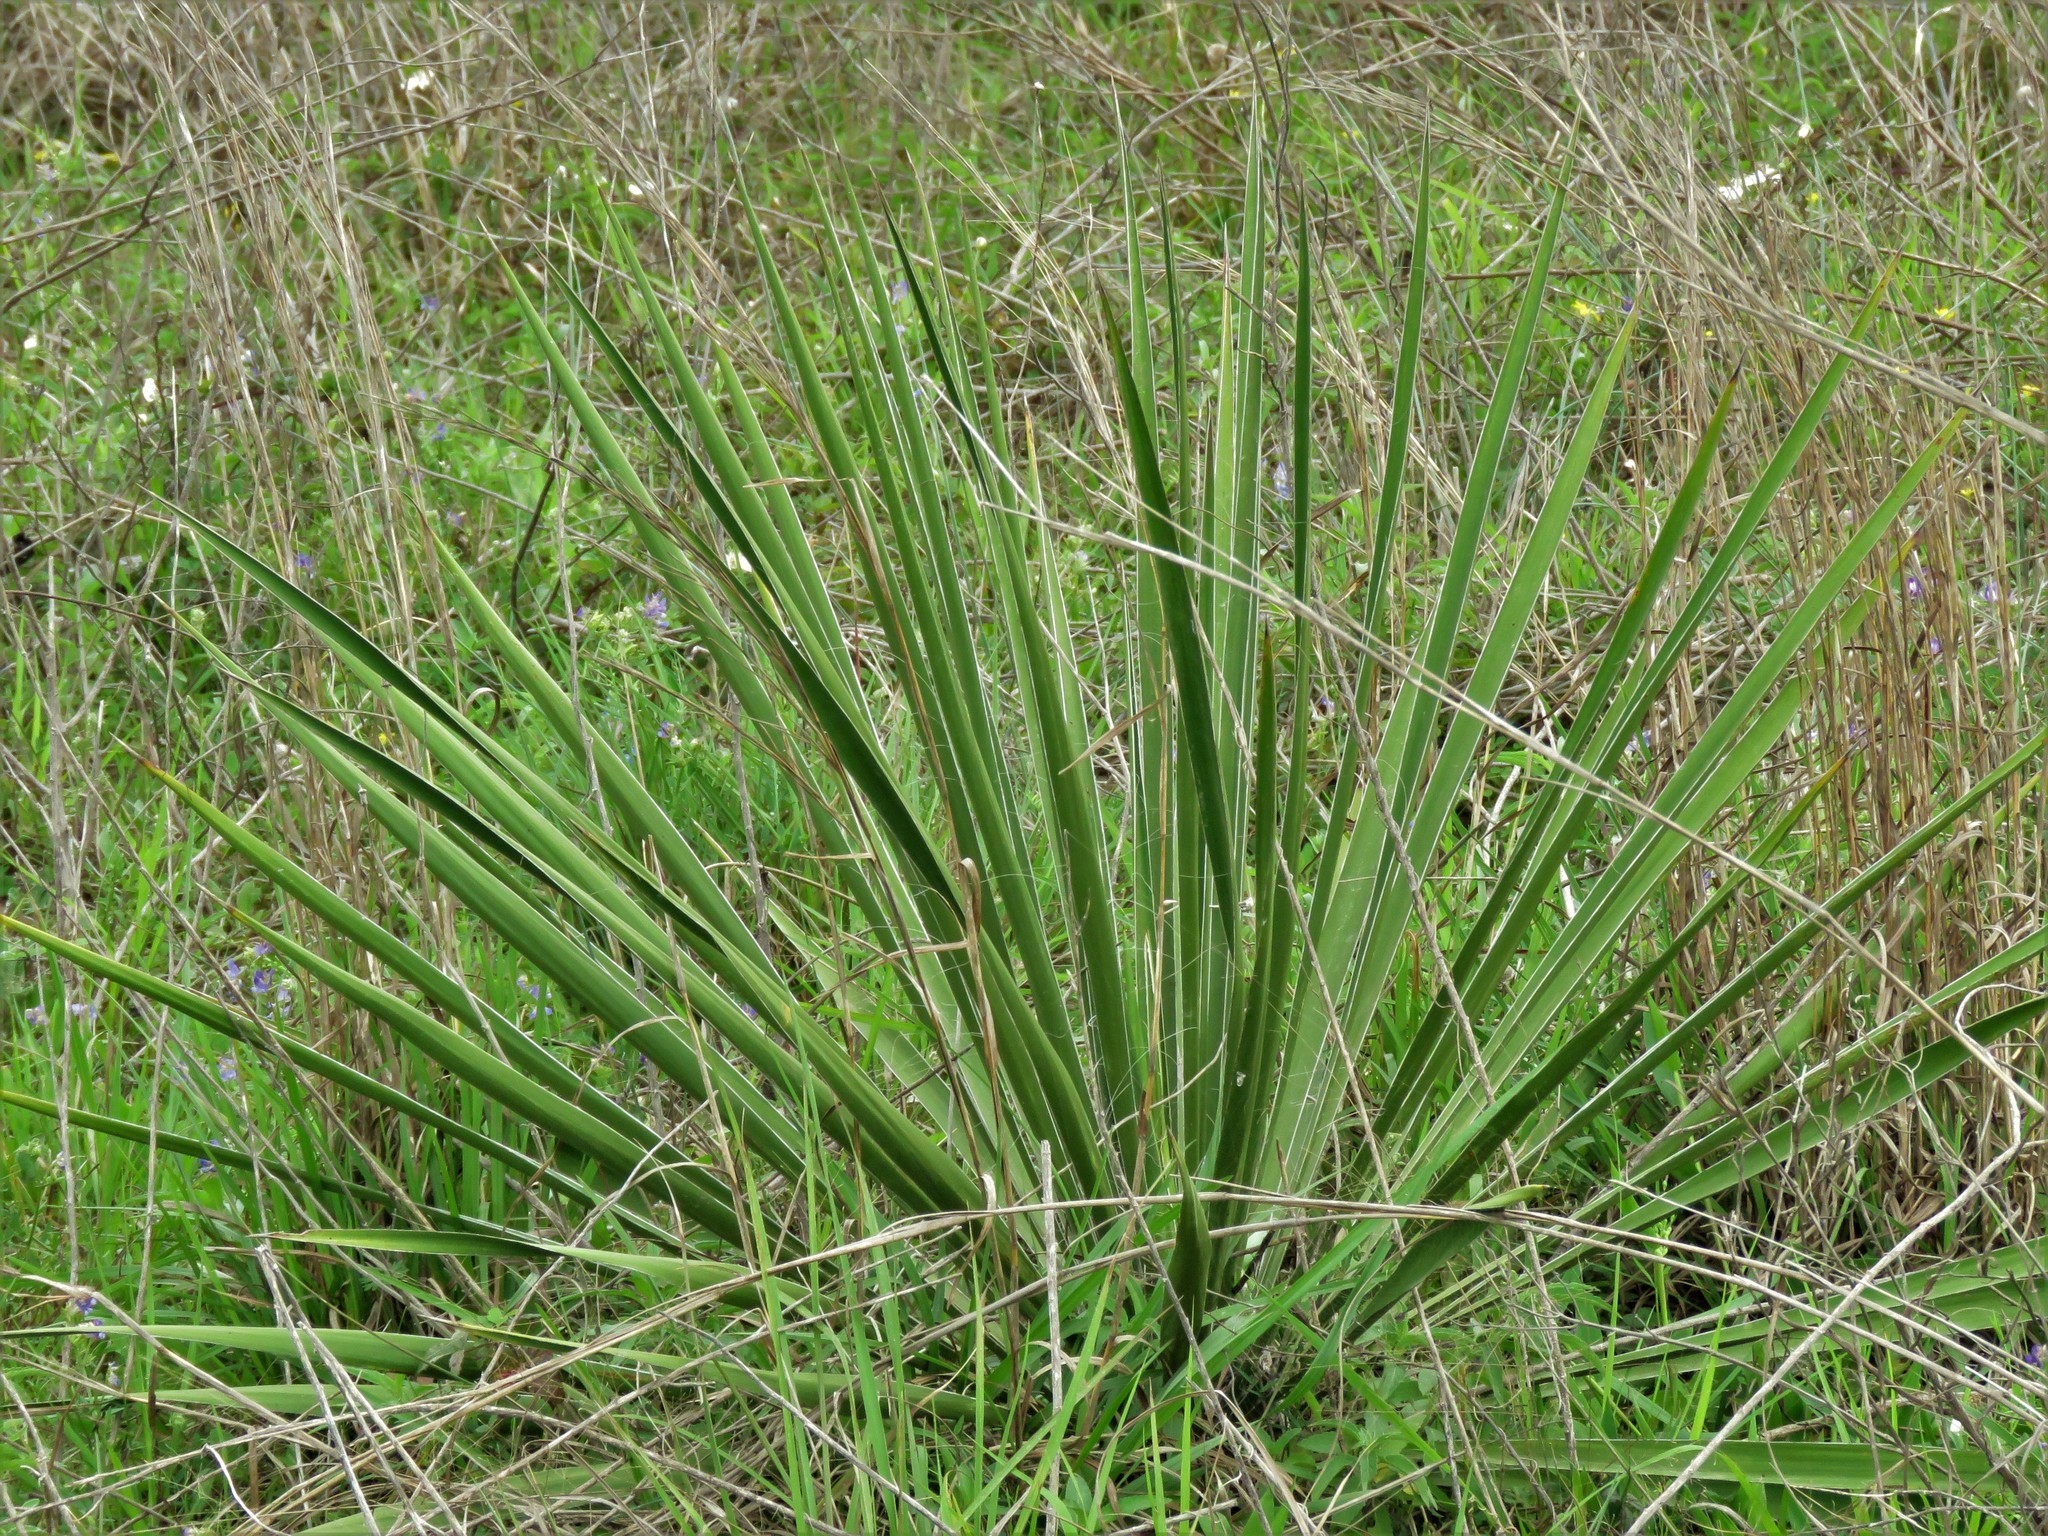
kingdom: Plantae
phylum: Tracheophyta
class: Liliopsida
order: Asparagales
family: Asparagaceae
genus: Yucca
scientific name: Yucca flaccida
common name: Adam's-needle
